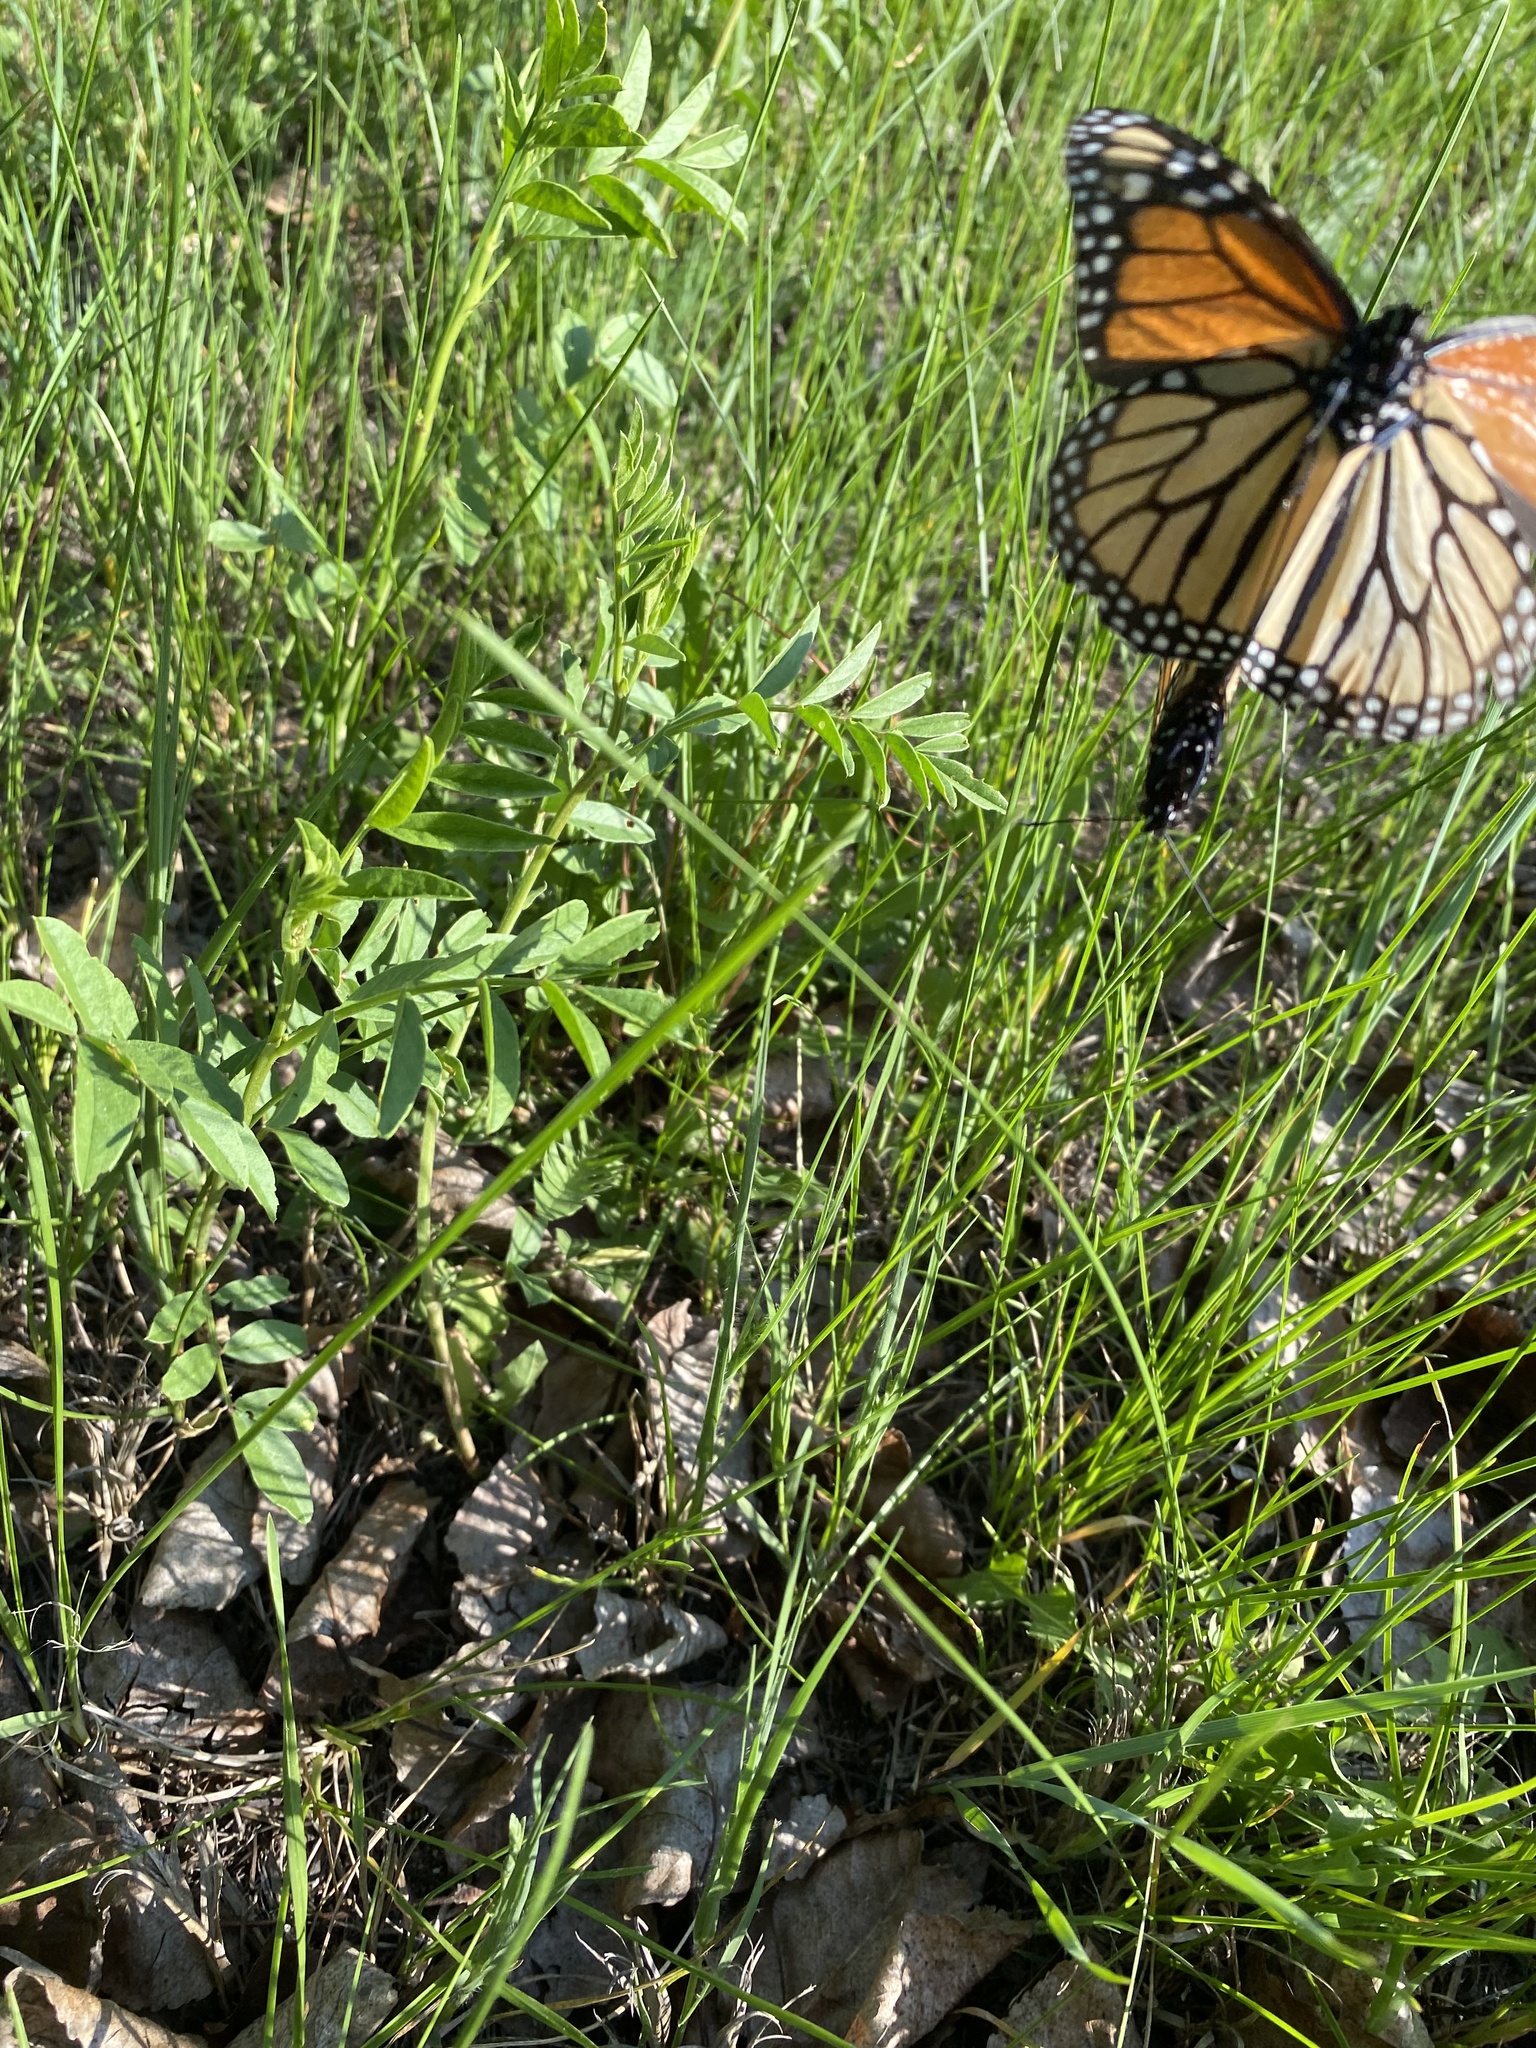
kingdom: Animalia
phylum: Arthropoda
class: Insecta
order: Lepidoptera
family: Nymphalidae
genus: Danaus
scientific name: Danaus plexippus
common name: Monarch
